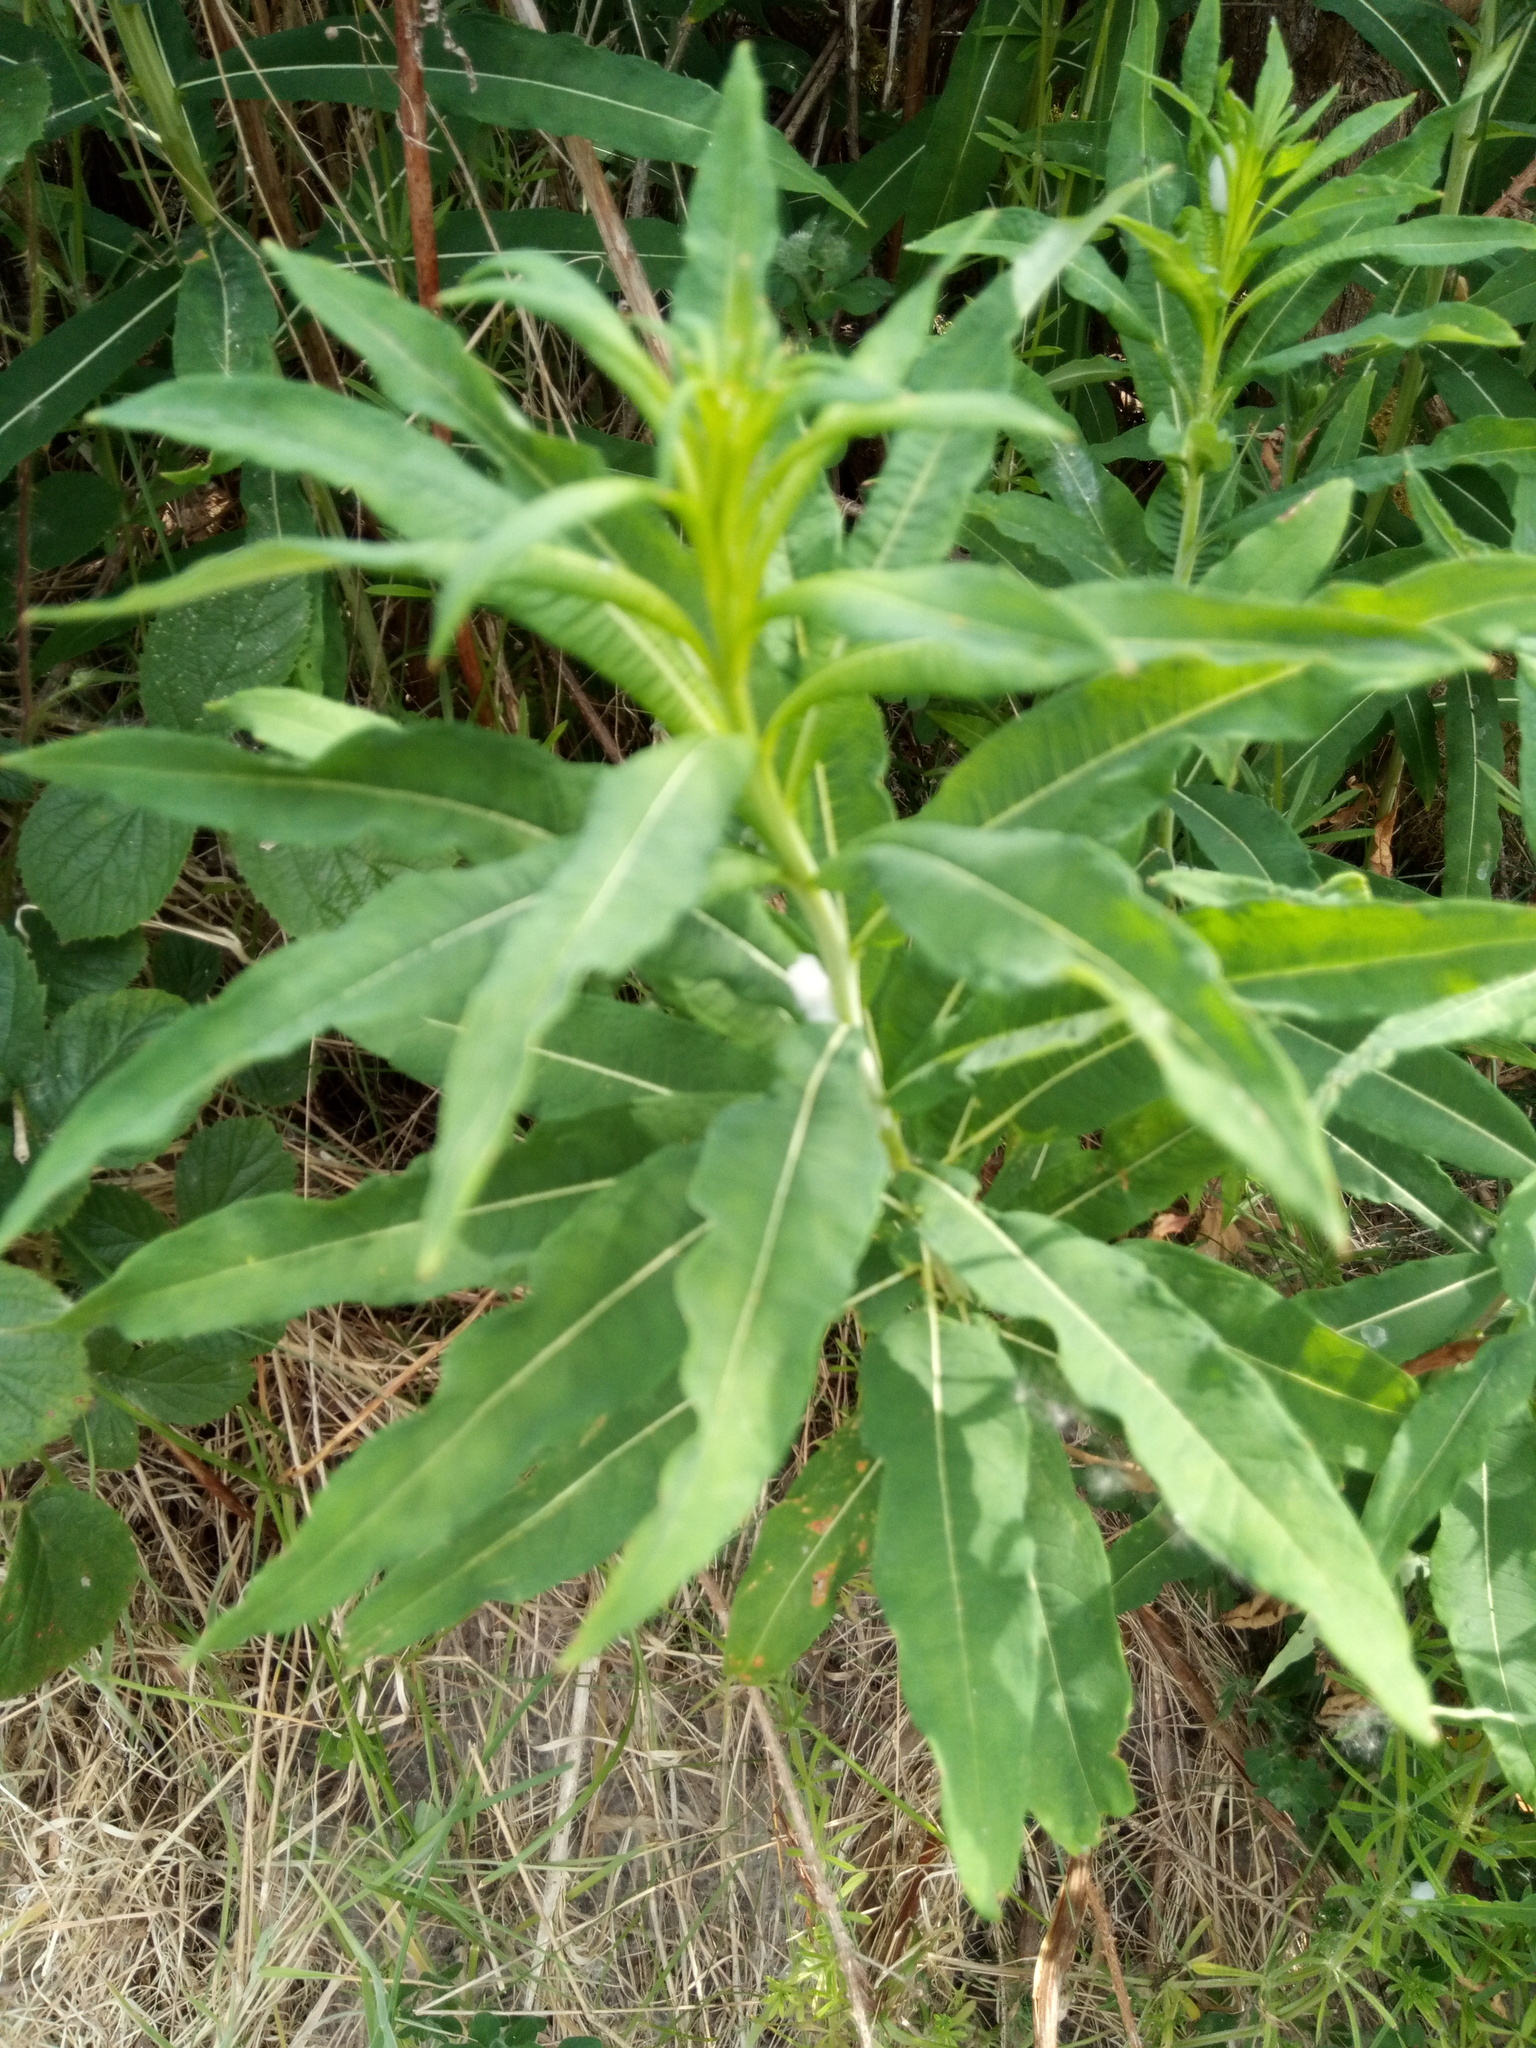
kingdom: Plantae
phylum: Tracheophyta
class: Magnoliopsida
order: Myrtales
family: Onagraceae
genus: Chamaenerion
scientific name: Chamaenerion angustifolium
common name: Fireweed
